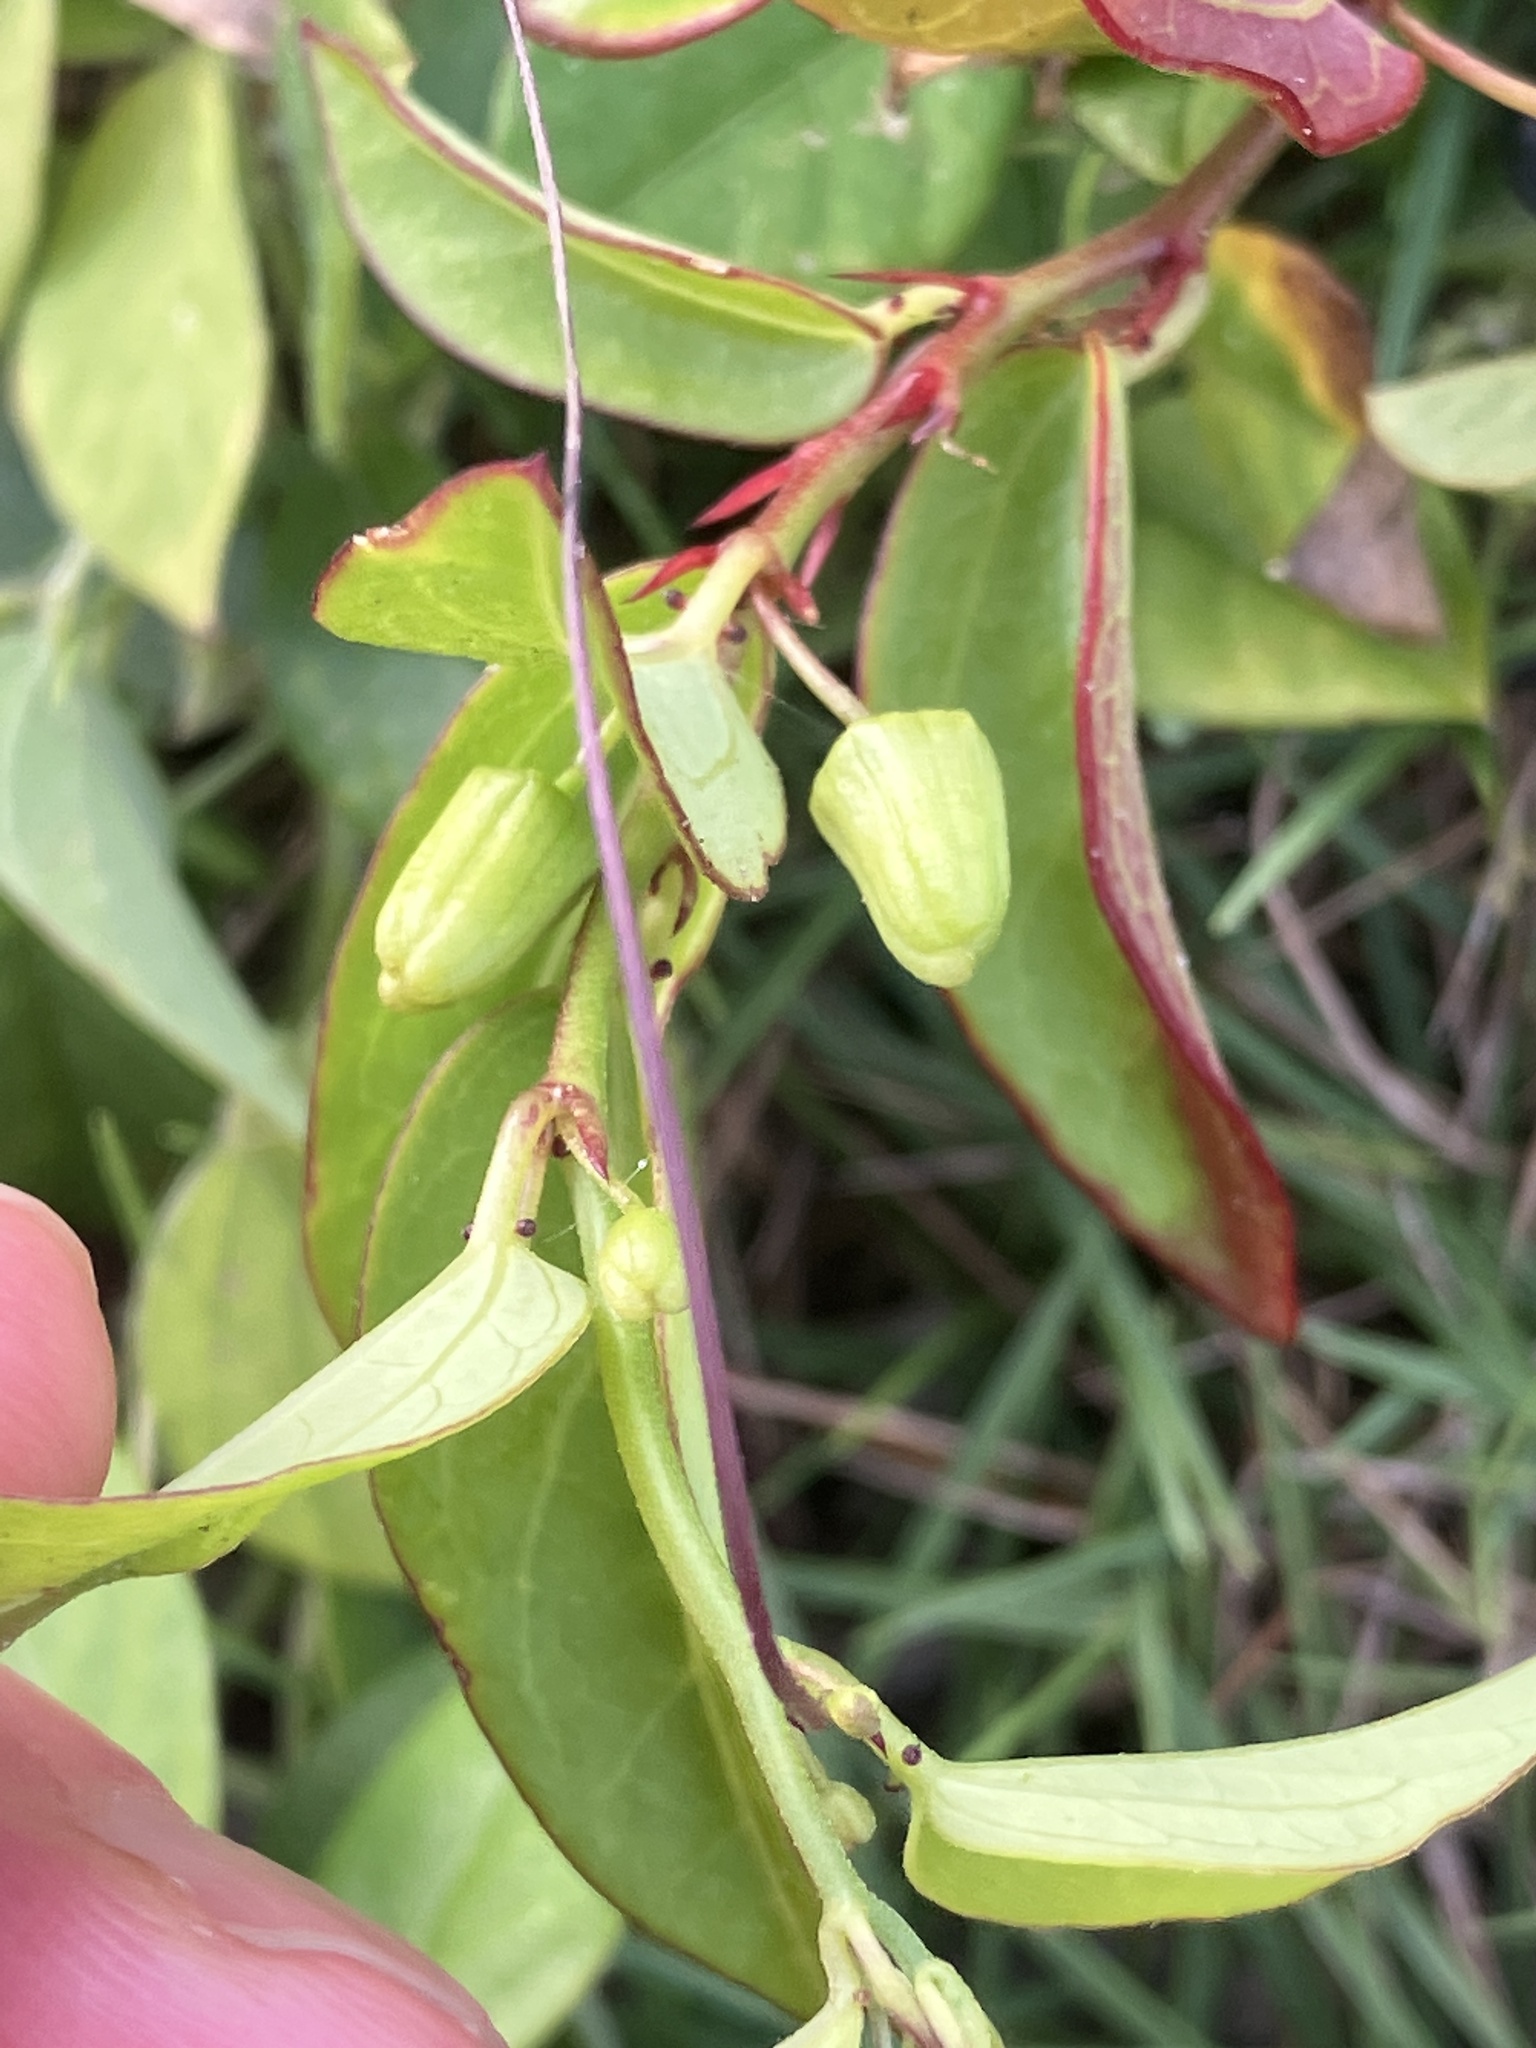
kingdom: Plantae
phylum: Tracheophyta
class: Magnoliopsida
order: Malpighiales
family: Passifloraceae
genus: Passiflora
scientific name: Passiflora pallida
